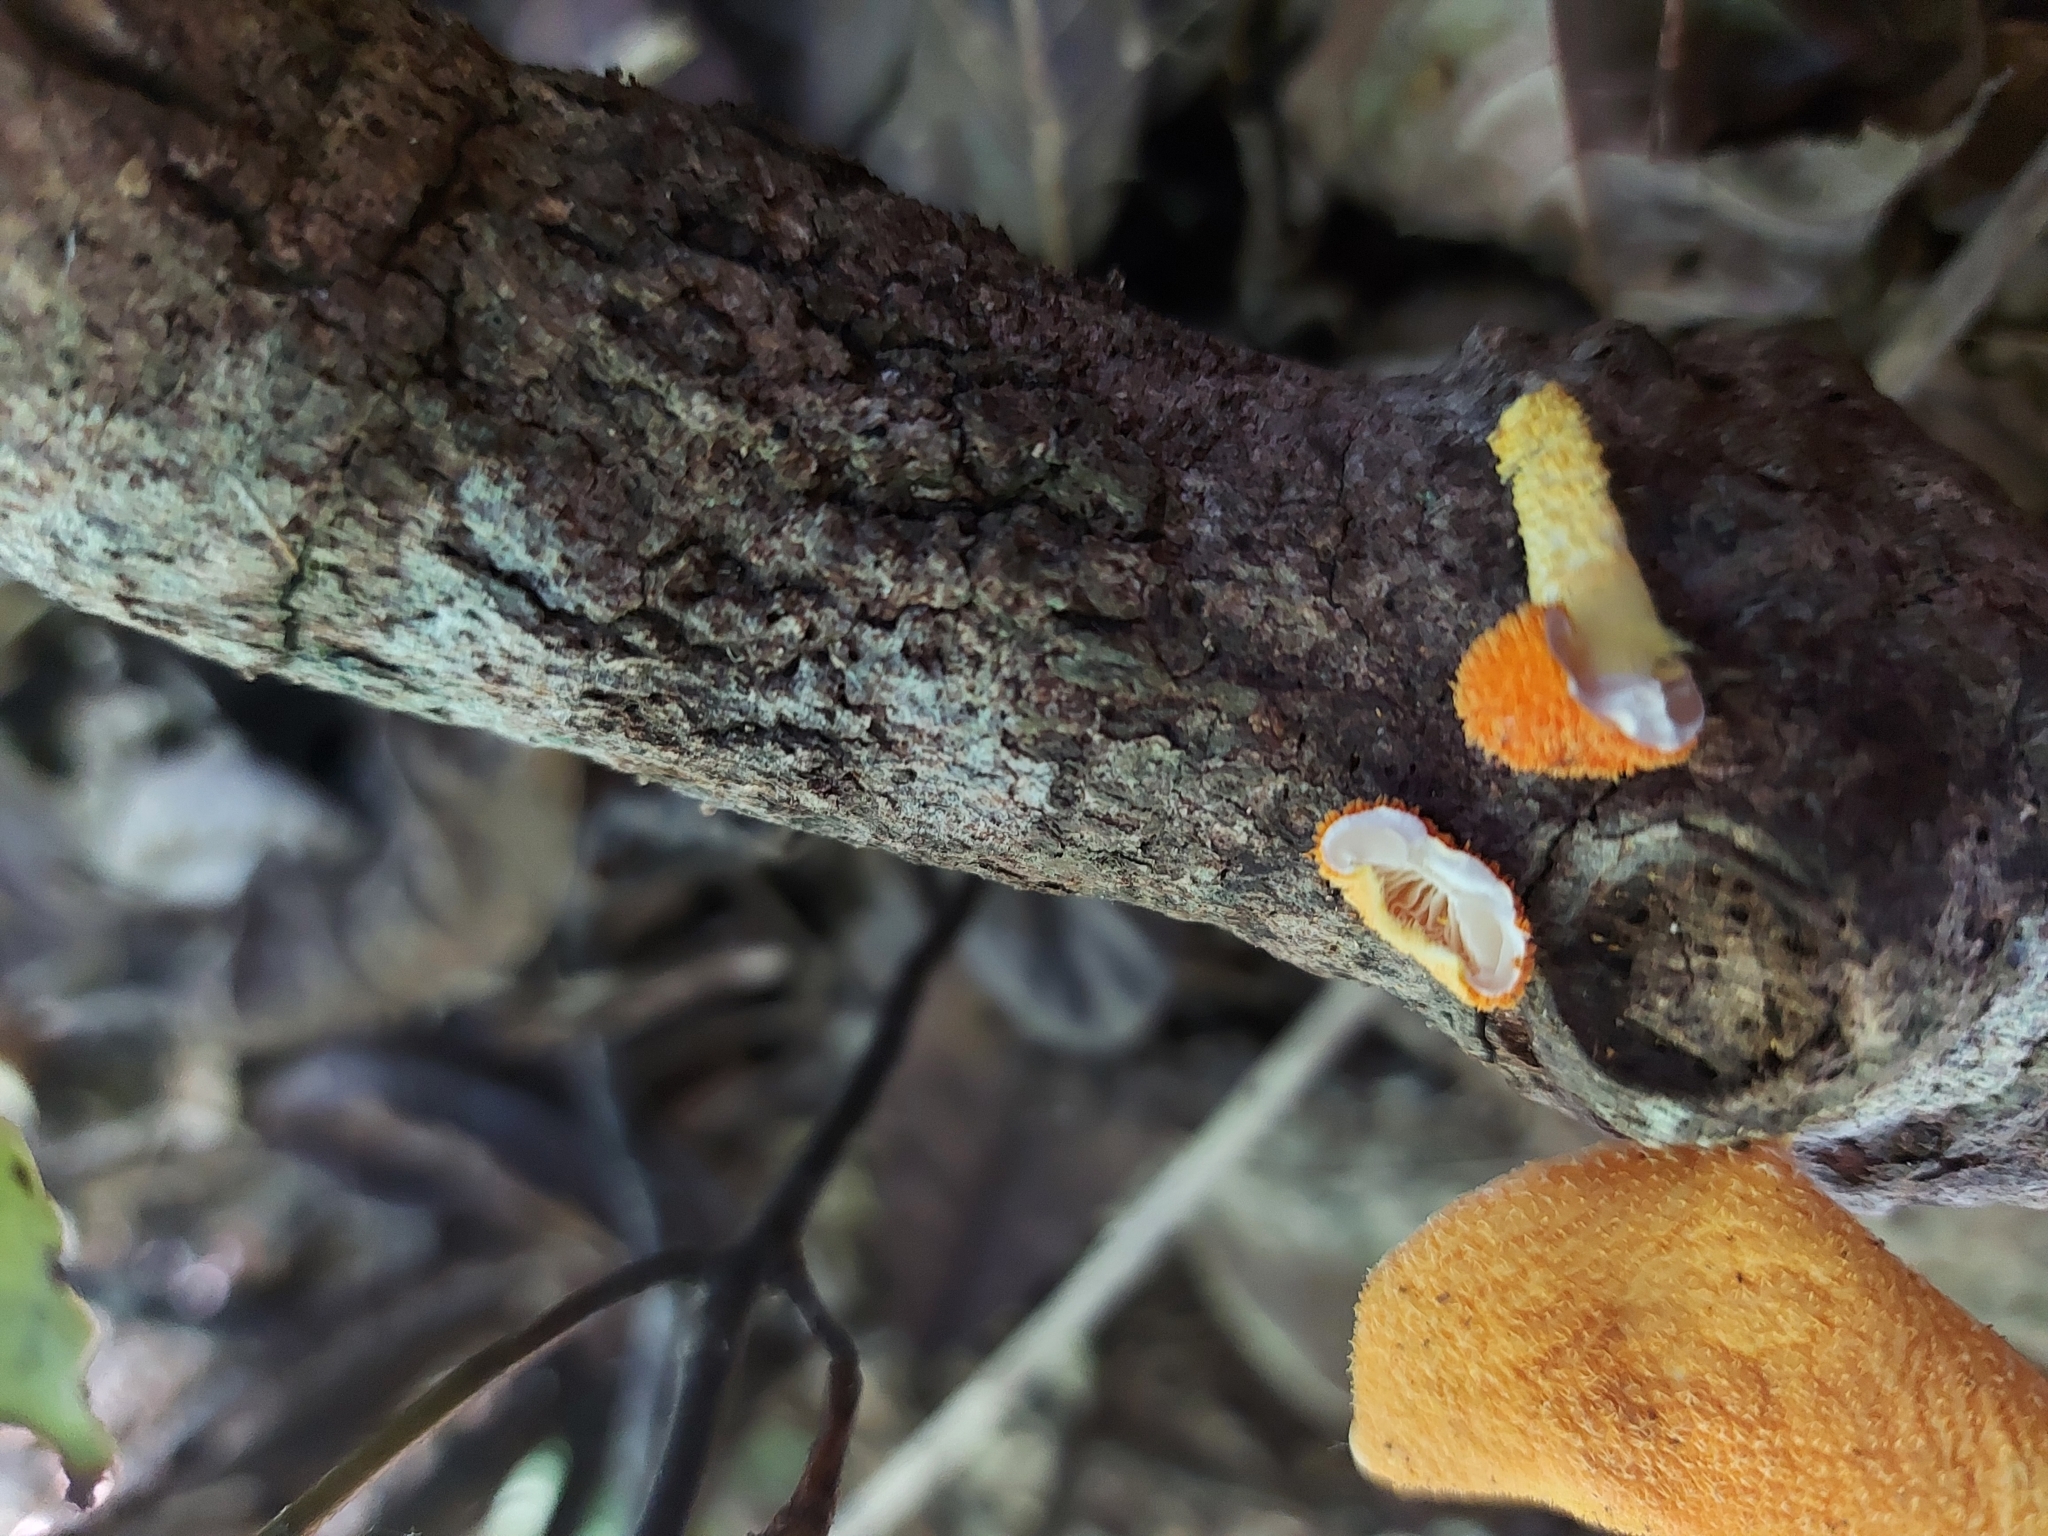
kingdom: Fungi
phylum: Basidiomycota
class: Agaricomycetes
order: Agaricales
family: Physalacriaceae
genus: Cyptotrama
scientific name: Cyptotrama asprata
